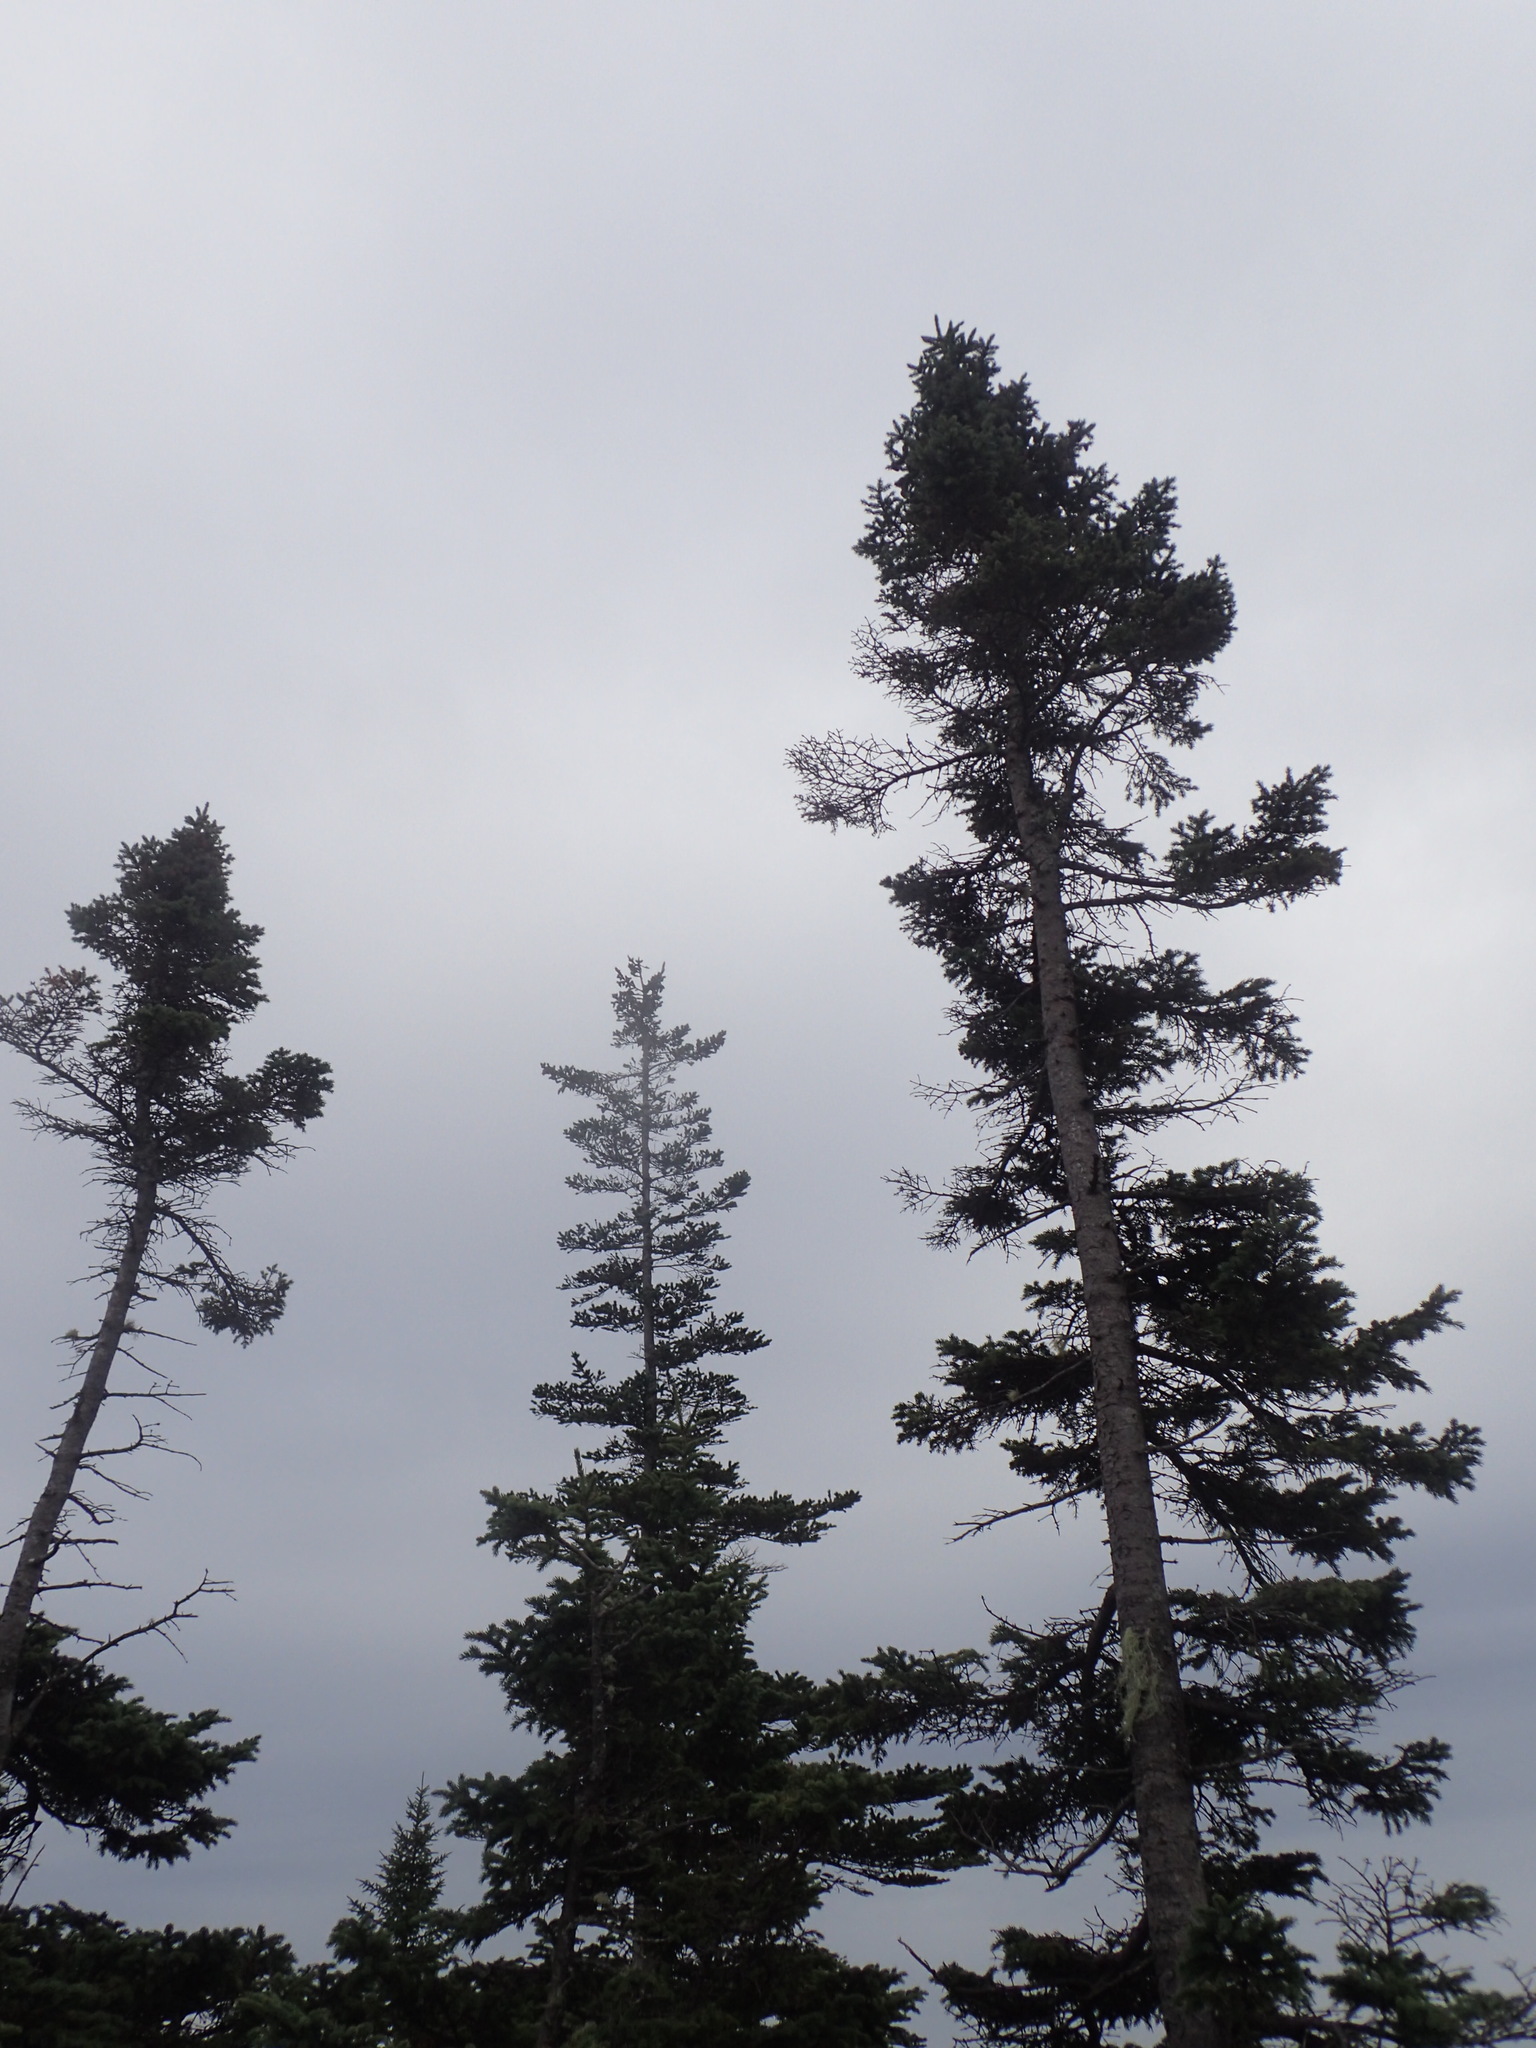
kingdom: Plantae
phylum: Tracheophyta
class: Pinopsida
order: Pinales
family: Pinaceae
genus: Picea
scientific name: Picea mariana
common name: Black spruce
